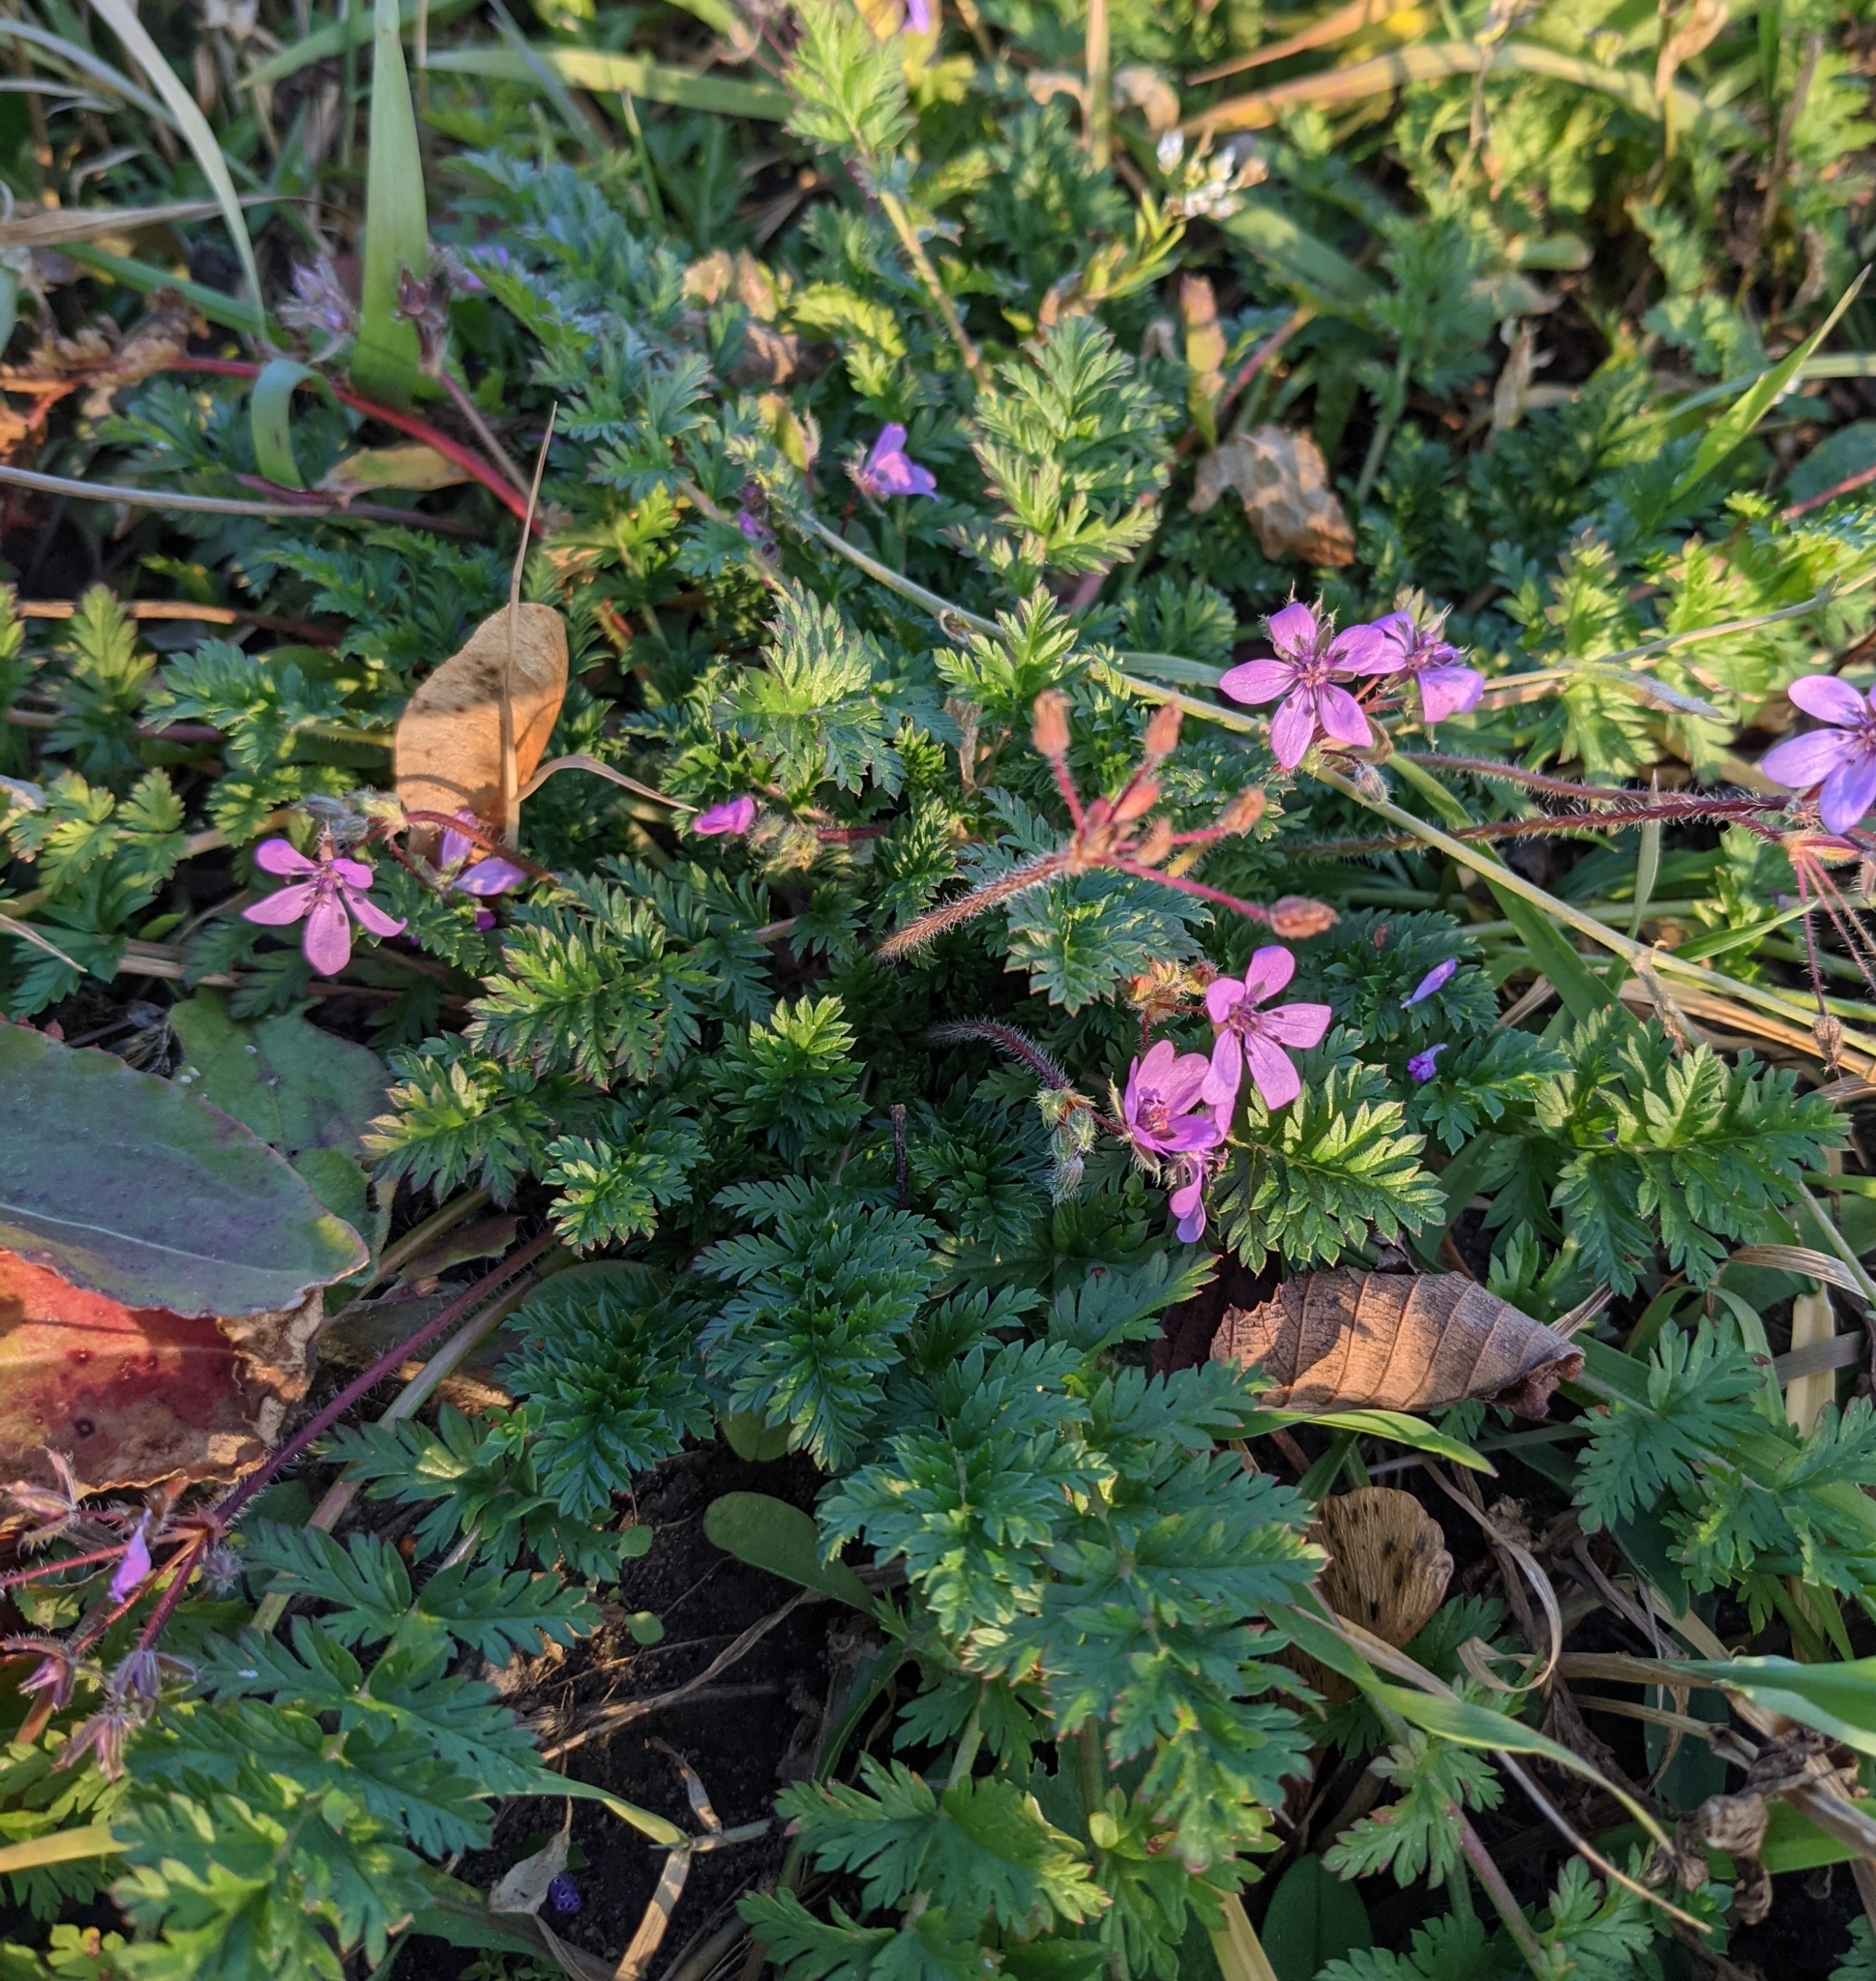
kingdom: Plantae
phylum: Tracheophyta
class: Magnoliopsida
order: Geraniales
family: Geraniaceae
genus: Erodium
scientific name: Erodium cicutarium
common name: Common stork's-bill
